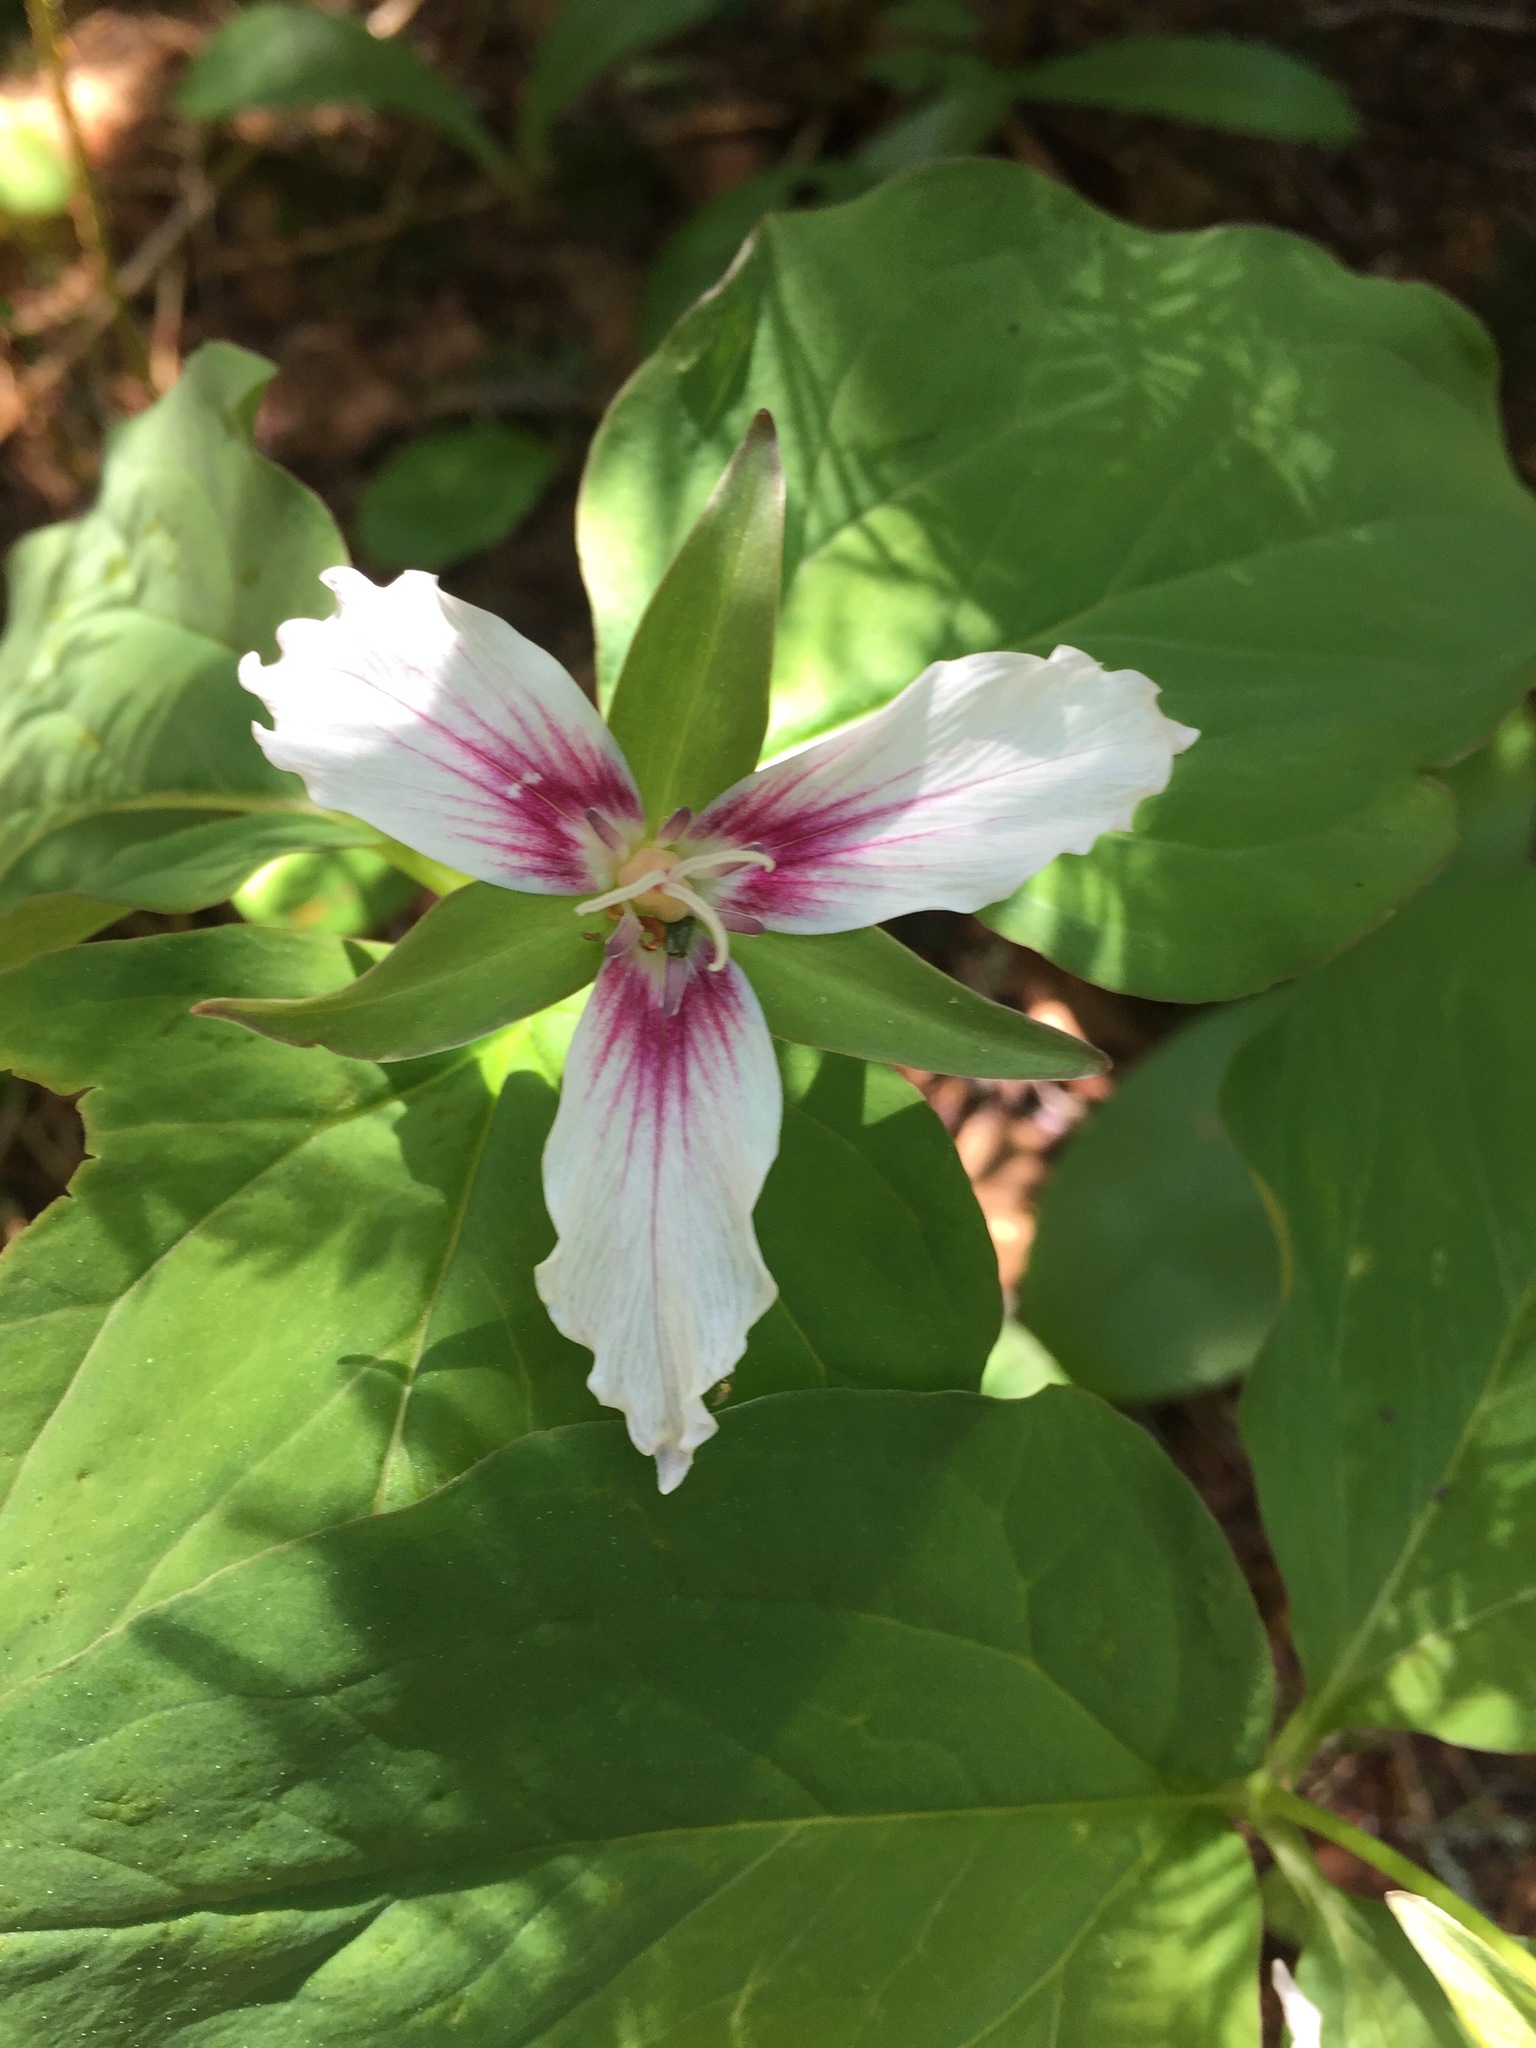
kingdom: Plantae
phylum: Tracheophyta
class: Liliopsida
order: Liliales
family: Melanthiaceae
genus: Trillium
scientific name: Trillium undulatum
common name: Paint trillium
